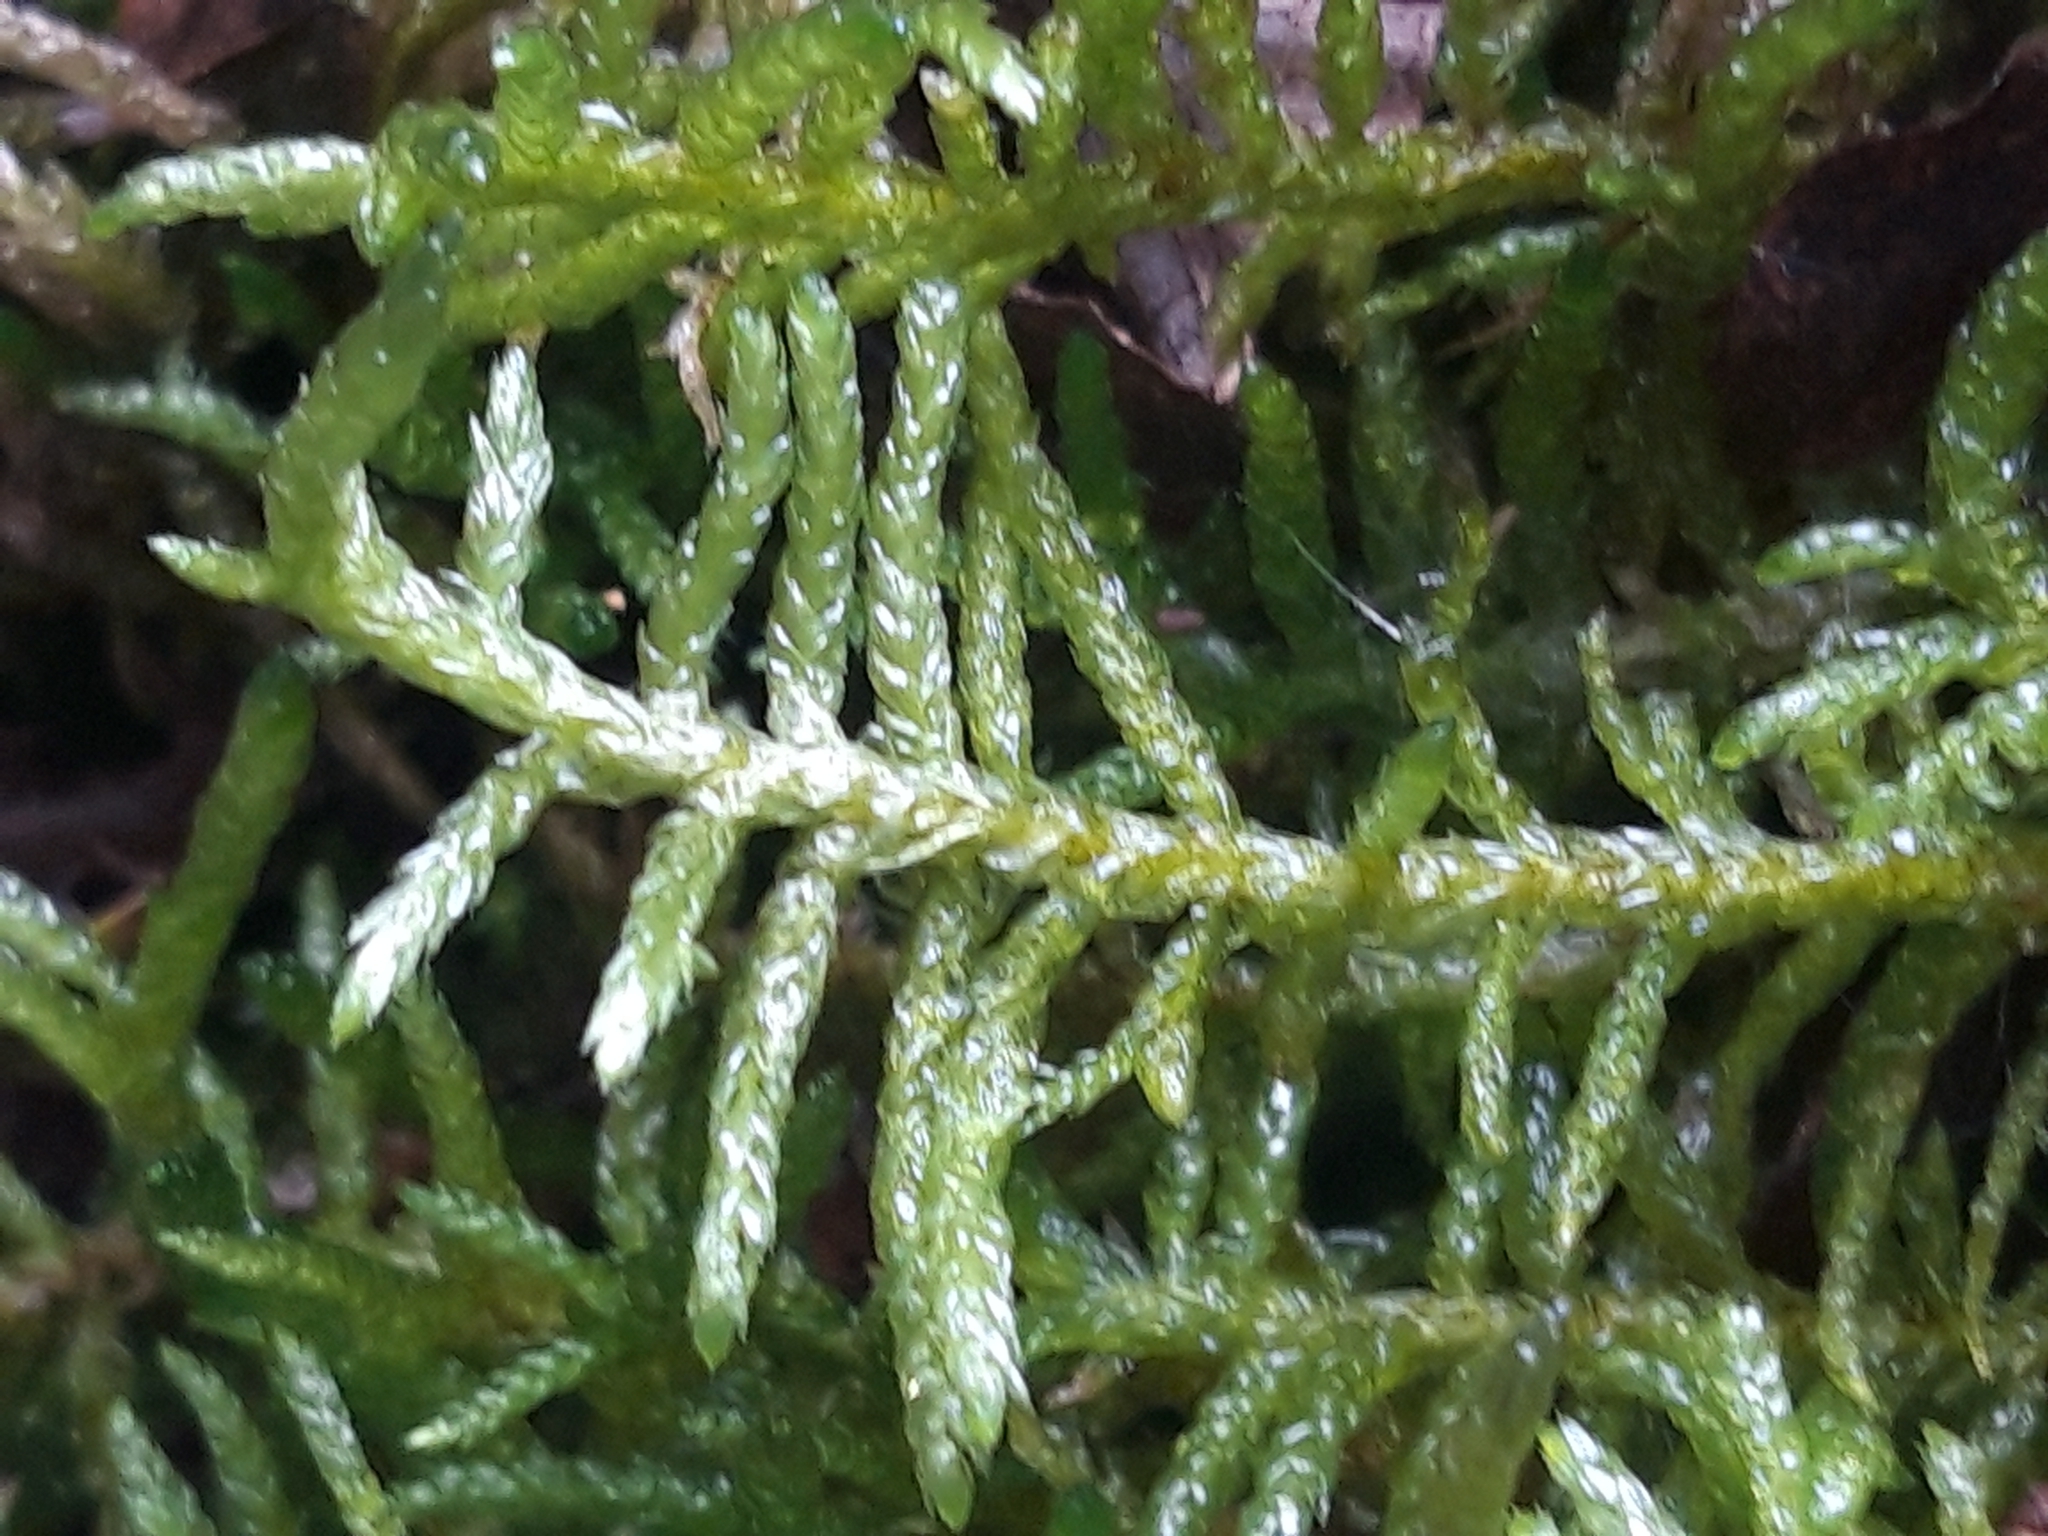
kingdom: Plantae
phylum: Bryophyta
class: Bryopsida
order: Hypnales
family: Brachytheciaceae
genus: Pseudoscleropodium
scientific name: Pseudoscleropodium purum
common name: Neat feather-moss
